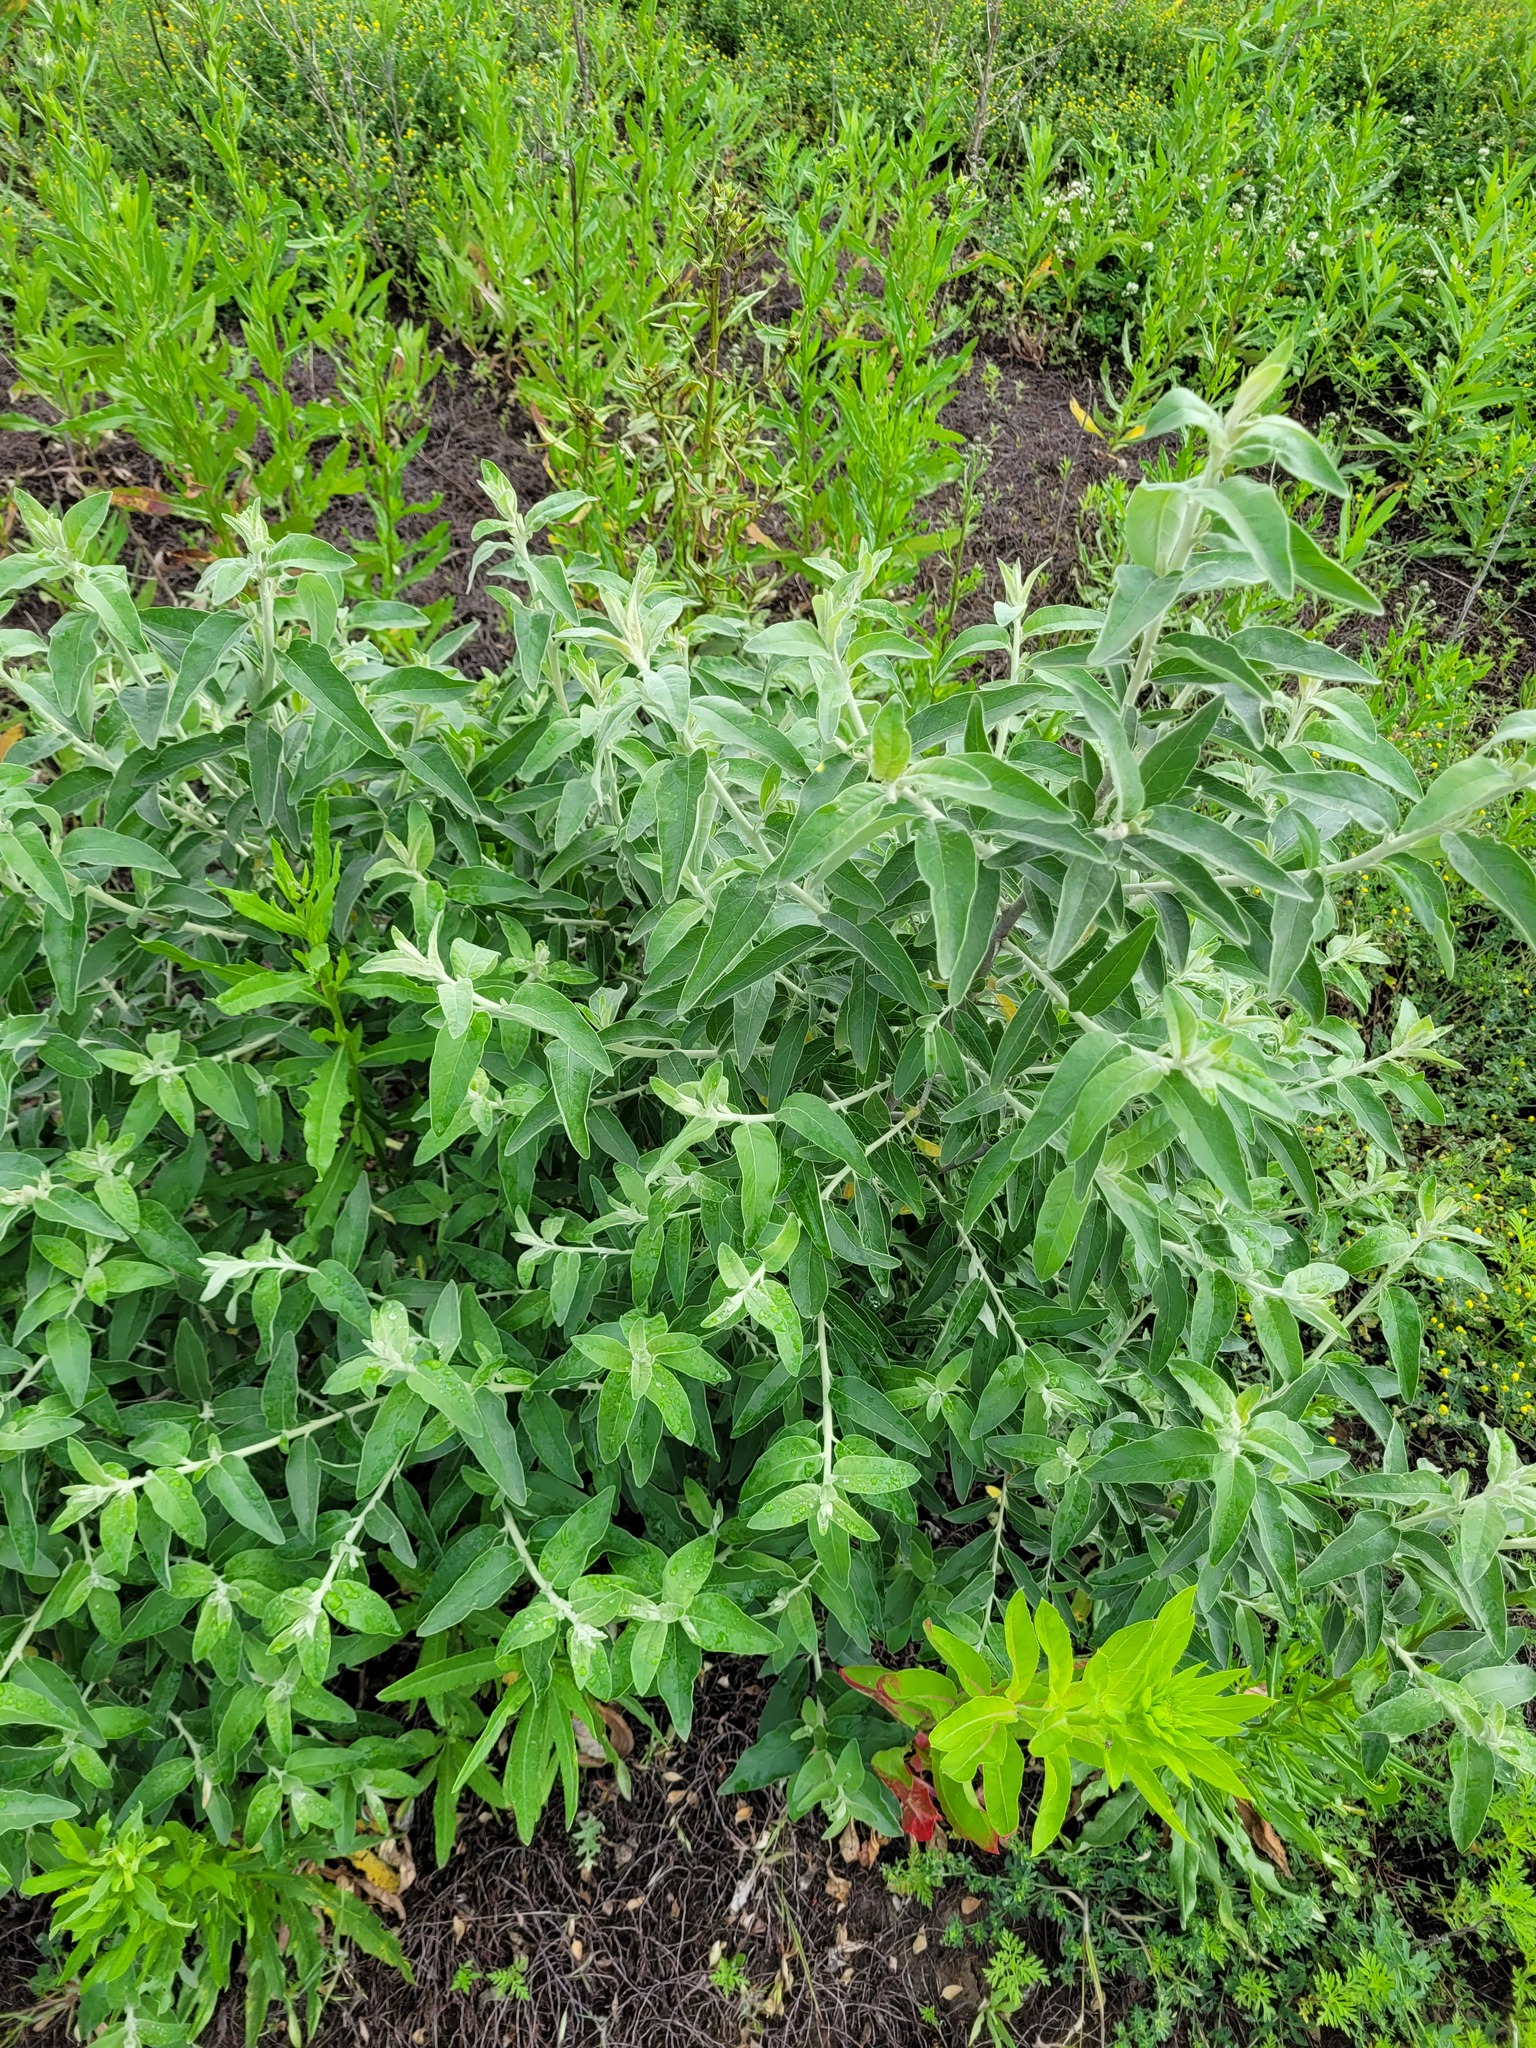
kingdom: Plantae
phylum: Tracheophyta
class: Magnoliopsida
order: Rosales
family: Elaeagnaceae
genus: Elaeagnus
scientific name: Elaeagnus angustifolia
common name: Russian olive
